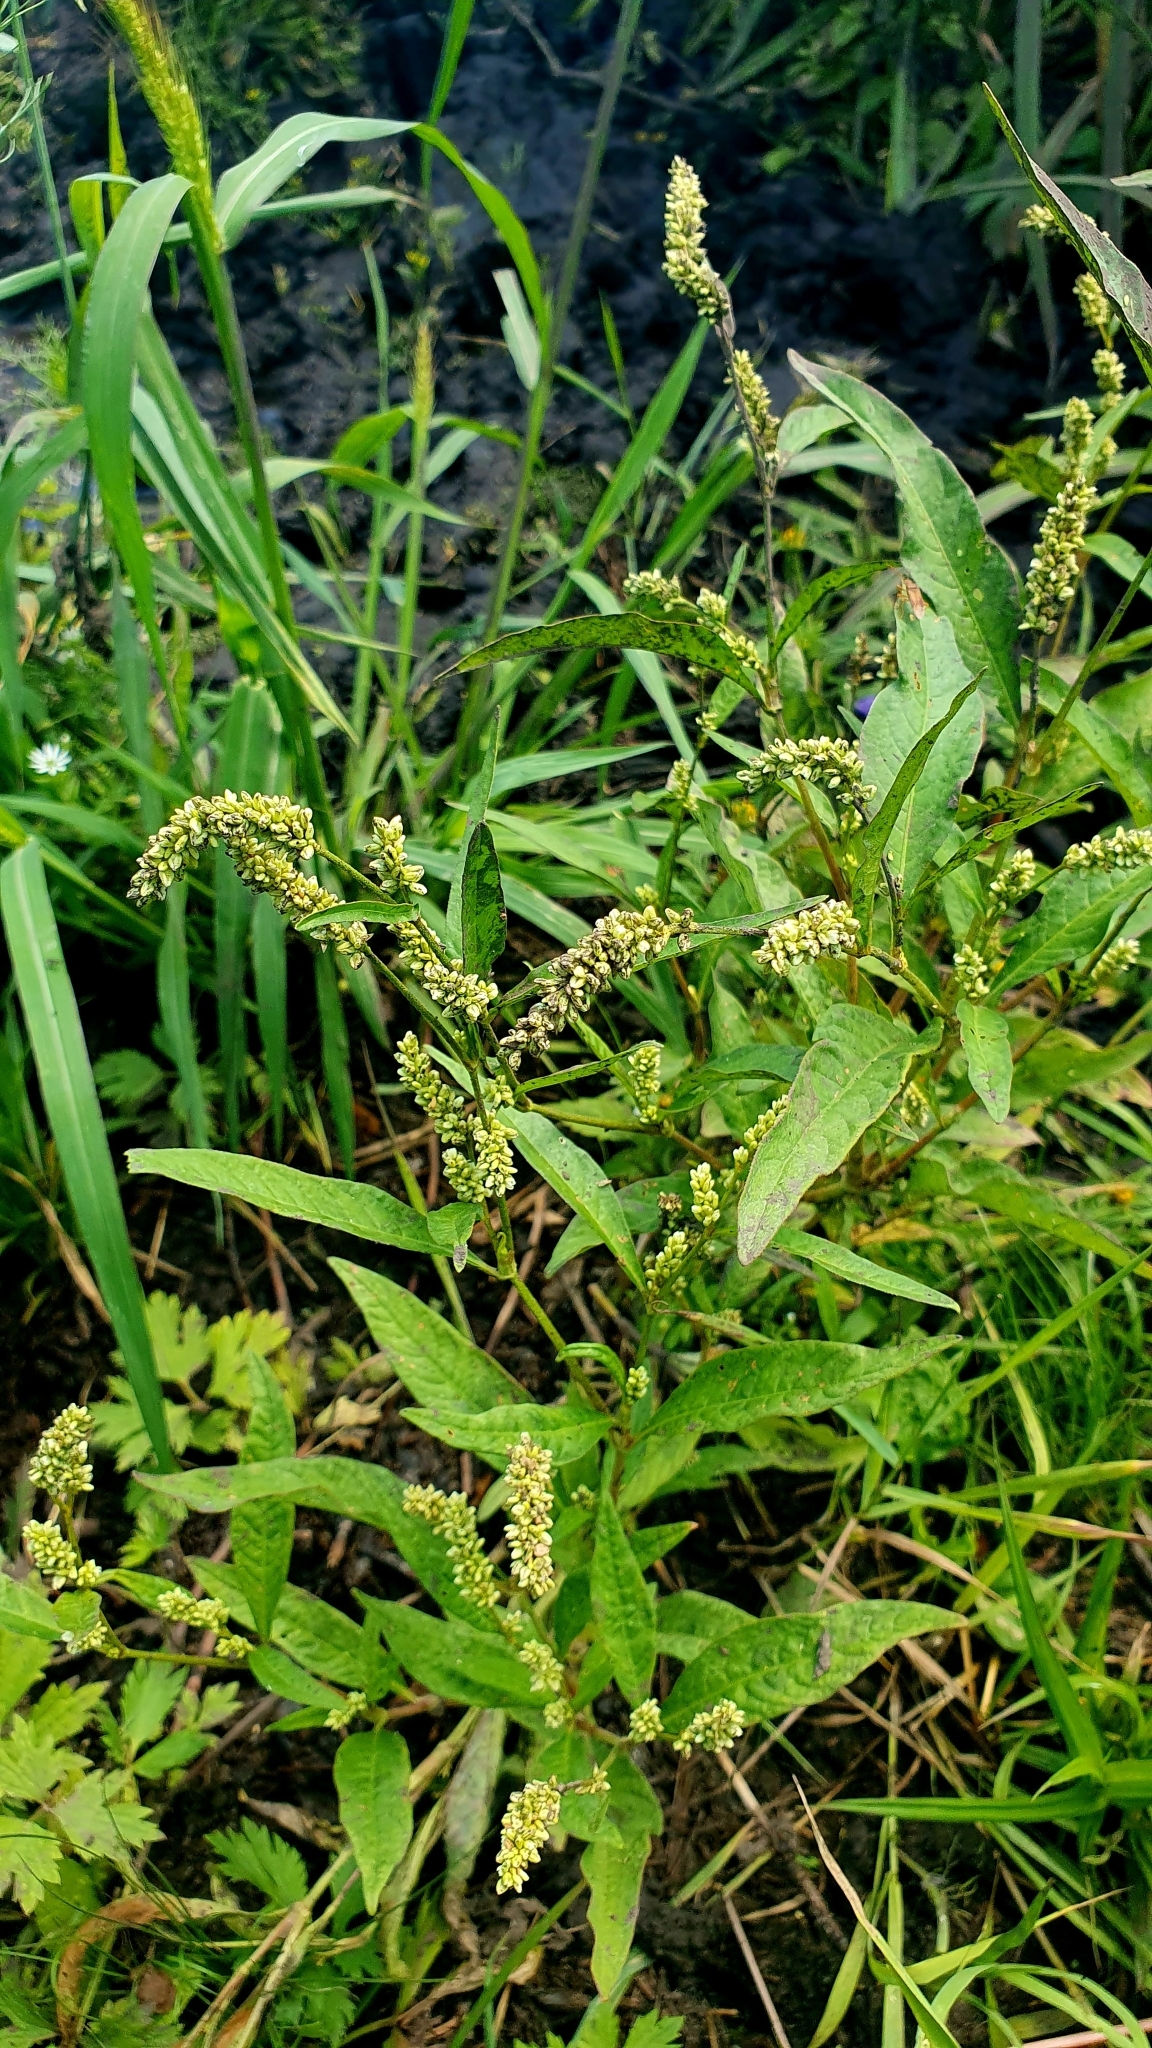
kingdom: Plantae
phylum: Tracheophyta
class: Magnoliopsida
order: Caryophyllales
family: Polygonaceae
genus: Persicaria
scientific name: Persicaria lapathifolia
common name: Curlytop knotweed
